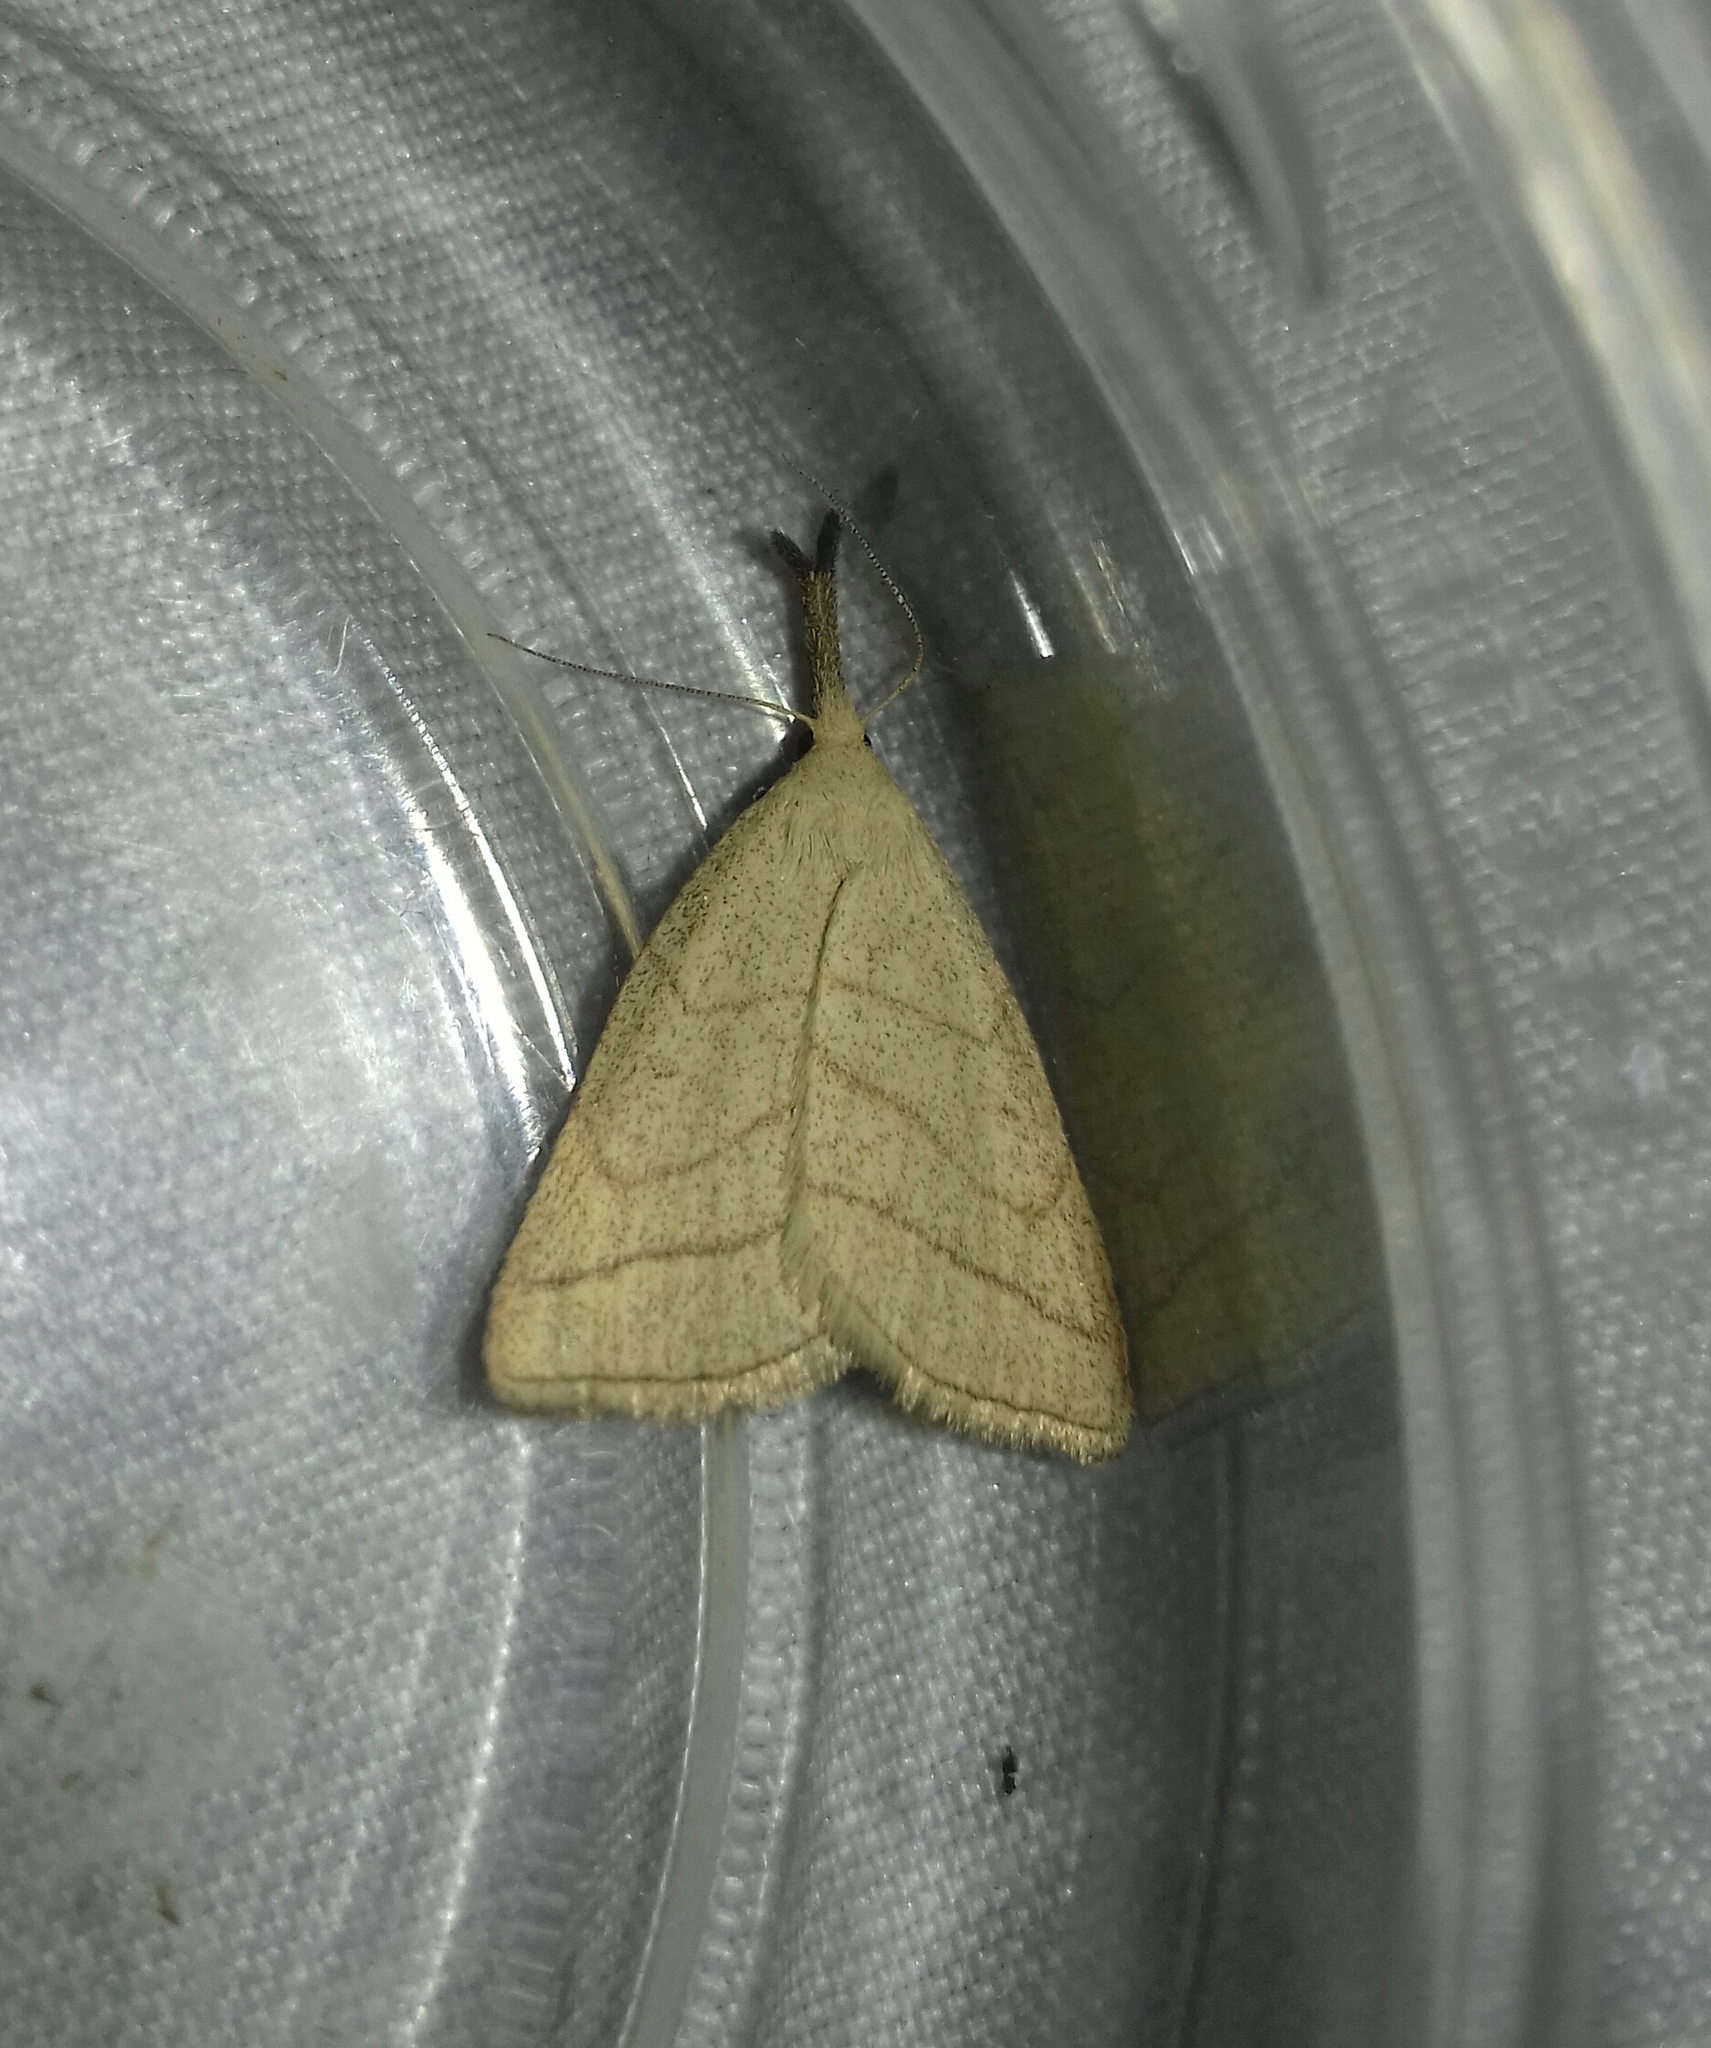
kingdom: Animalia
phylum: Arthropoda
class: Insecta
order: Lepidoptera
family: Erebidae
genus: Polypogon
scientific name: Polypogon tentacularia
